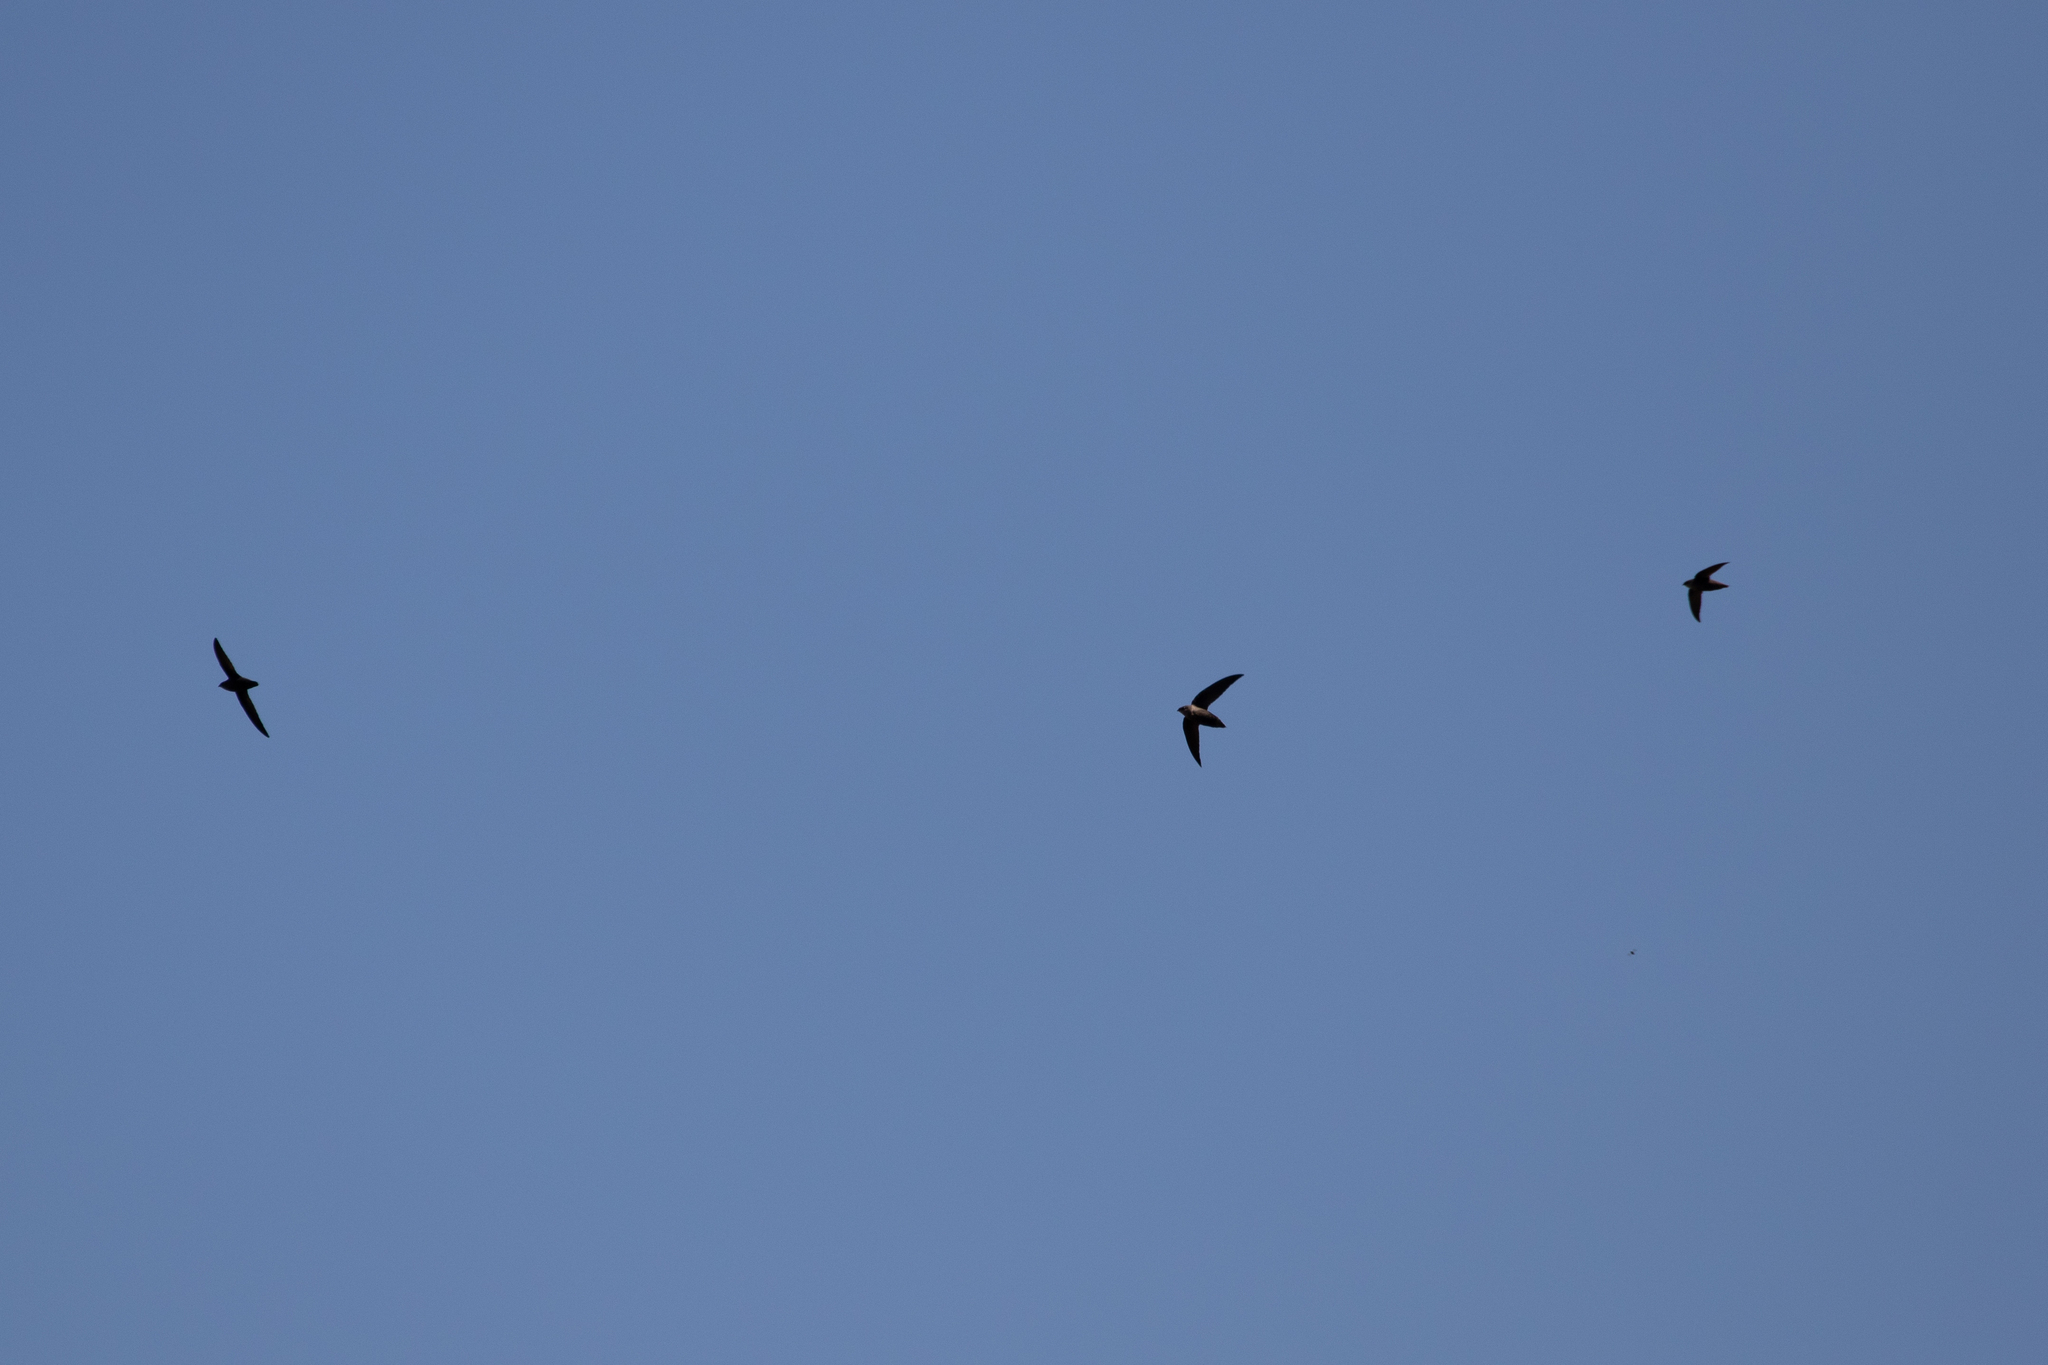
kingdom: Animalia
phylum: Chordata
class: Aves
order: Apodiformes
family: Apodidae
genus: Chaetura
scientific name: Chaetura pelagica
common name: Chimney swift
